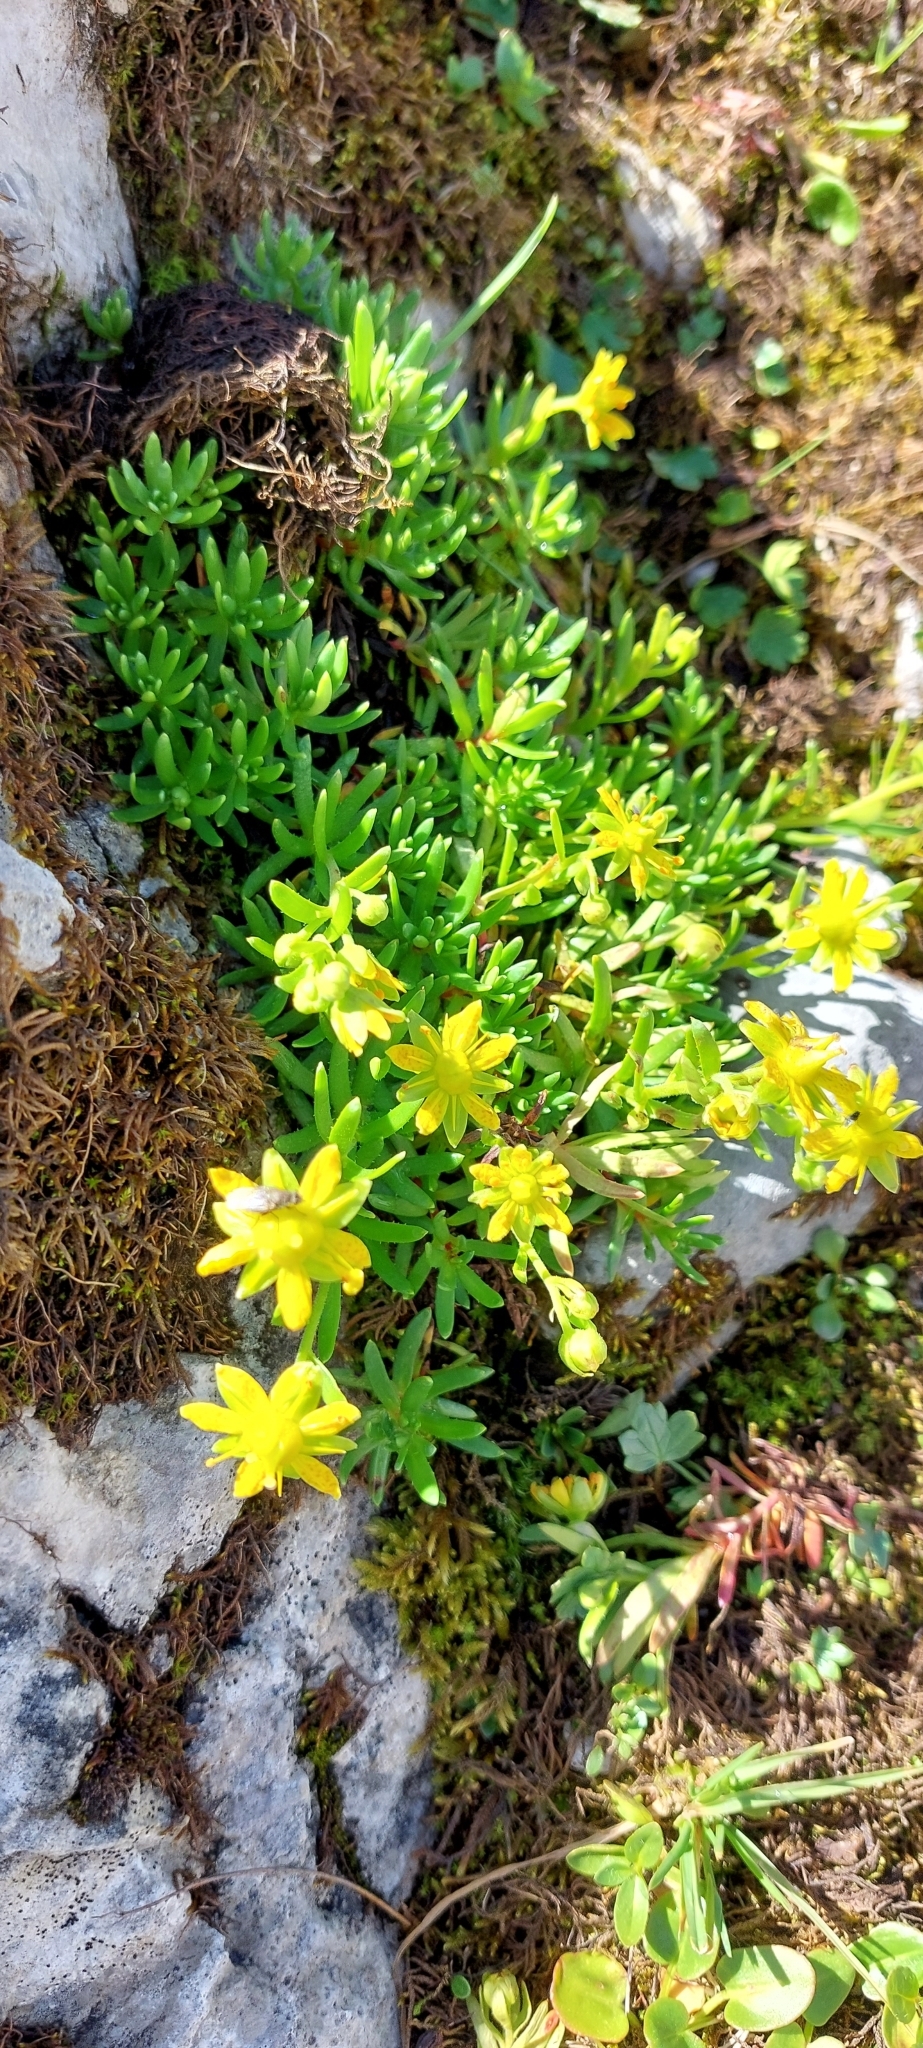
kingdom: Plantae
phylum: Tracheophyta
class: Magnoliopsida
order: Saxifragales
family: Saxifragaceae
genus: Saxifraga
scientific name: Saxifraga aizoides
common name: Yellow mountain saxifrage
